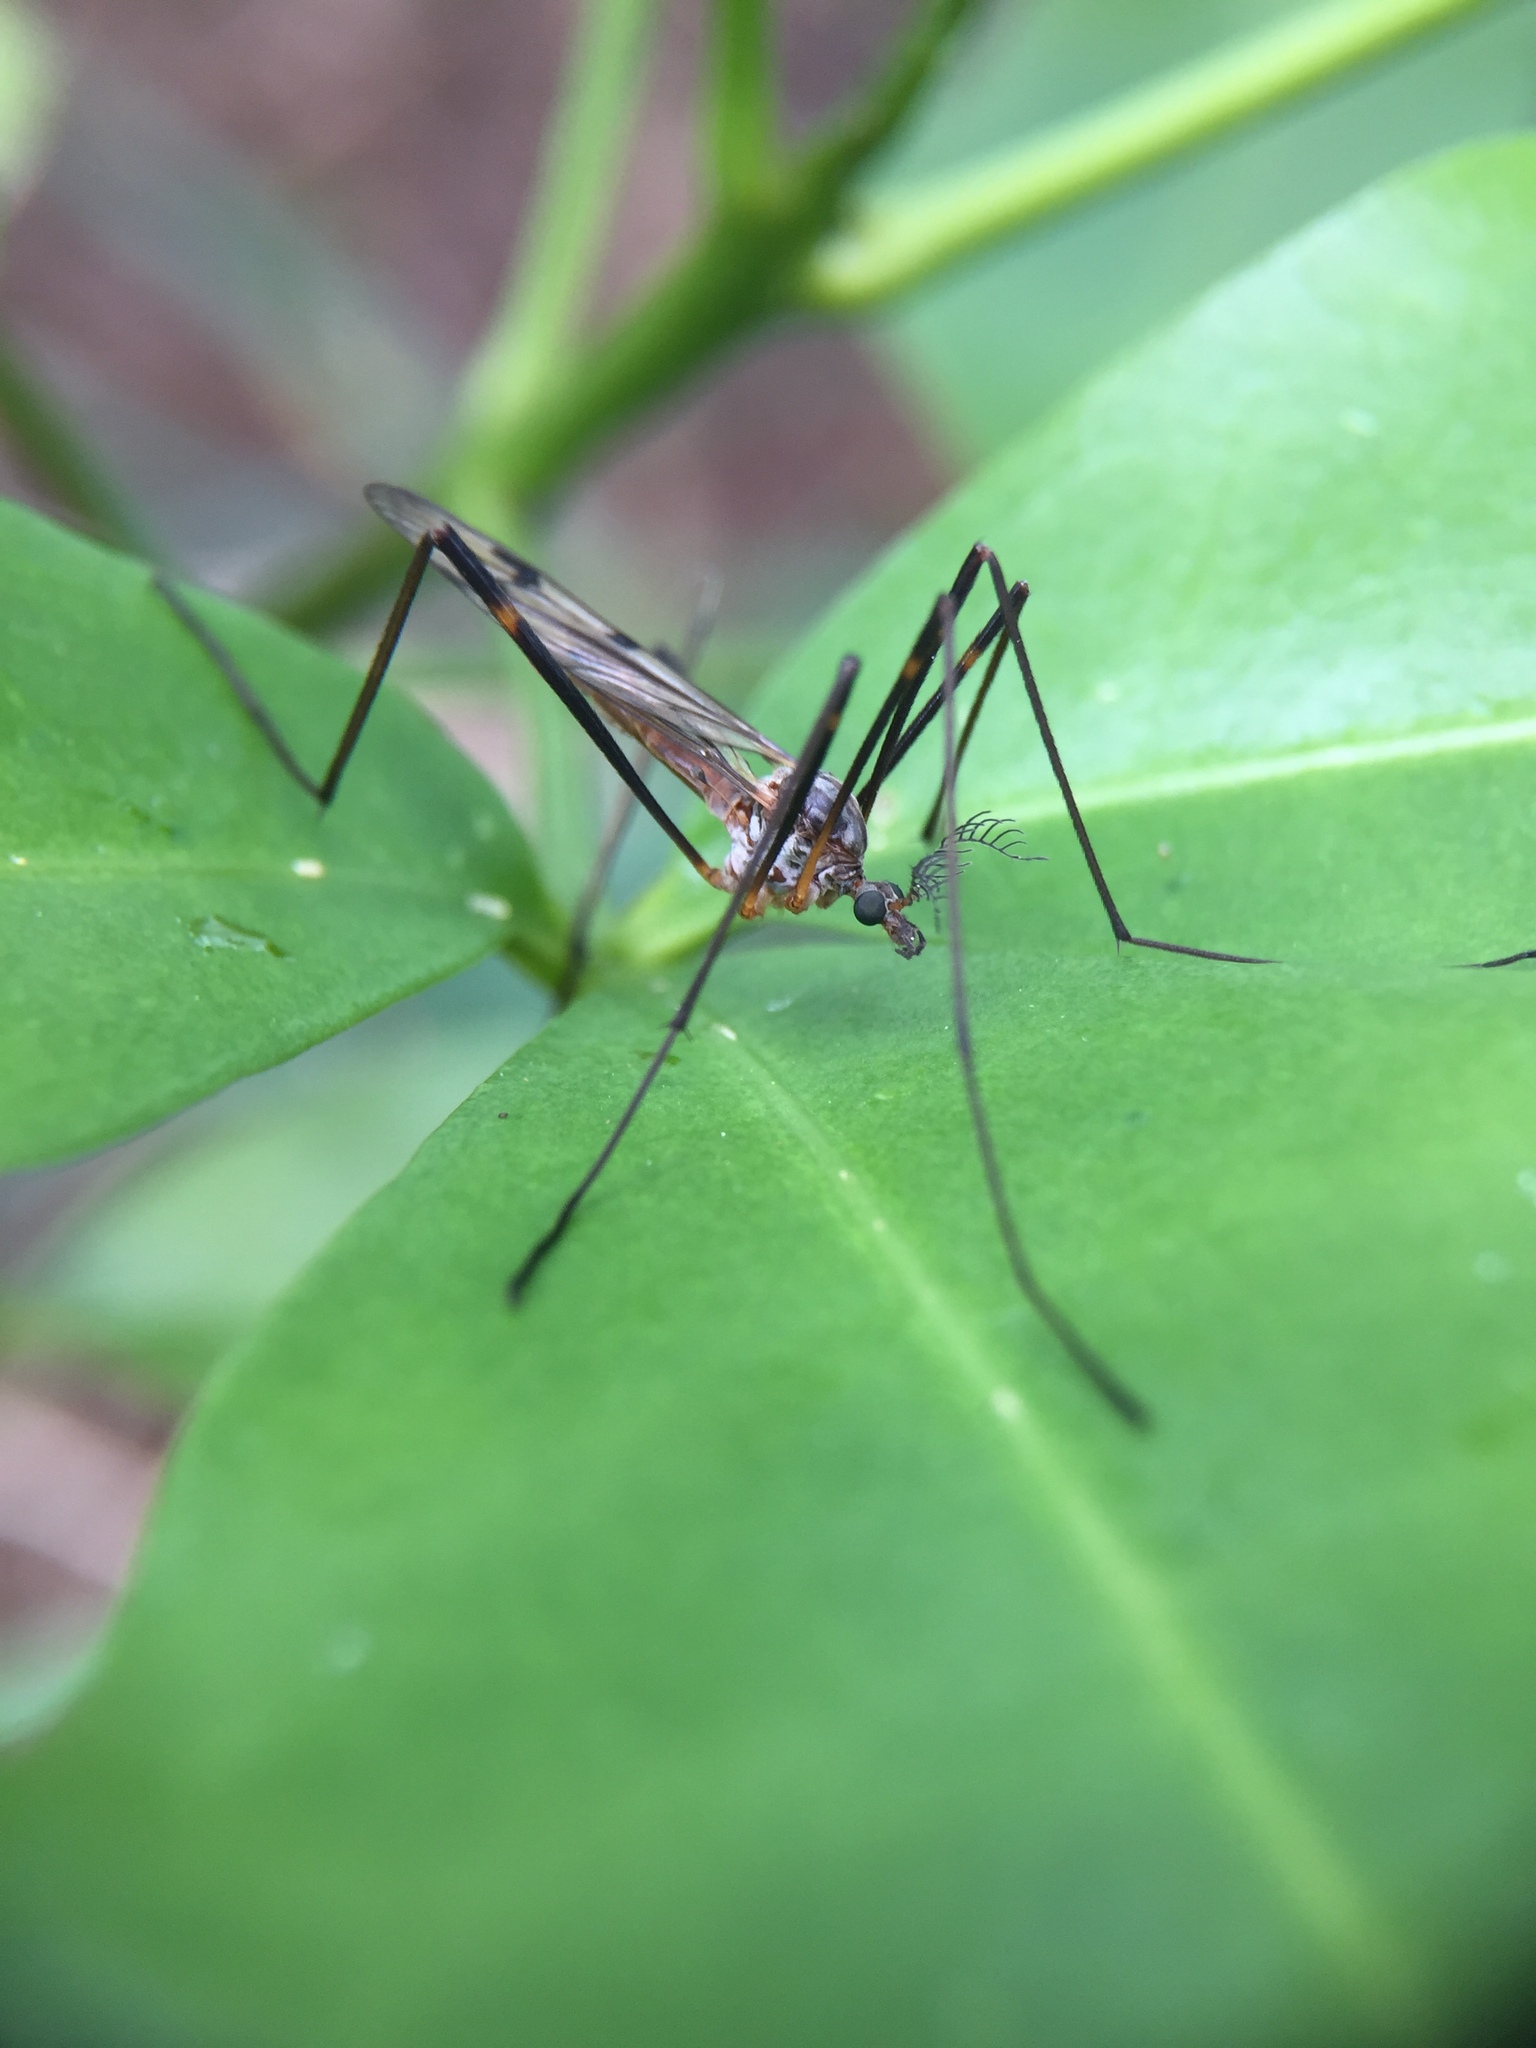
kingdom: Animalia
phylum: Arthropoda
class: Insecta
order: Diptera
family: Limoniidae
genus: Gynoplistia
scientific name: Gynoplistia fimbriata
